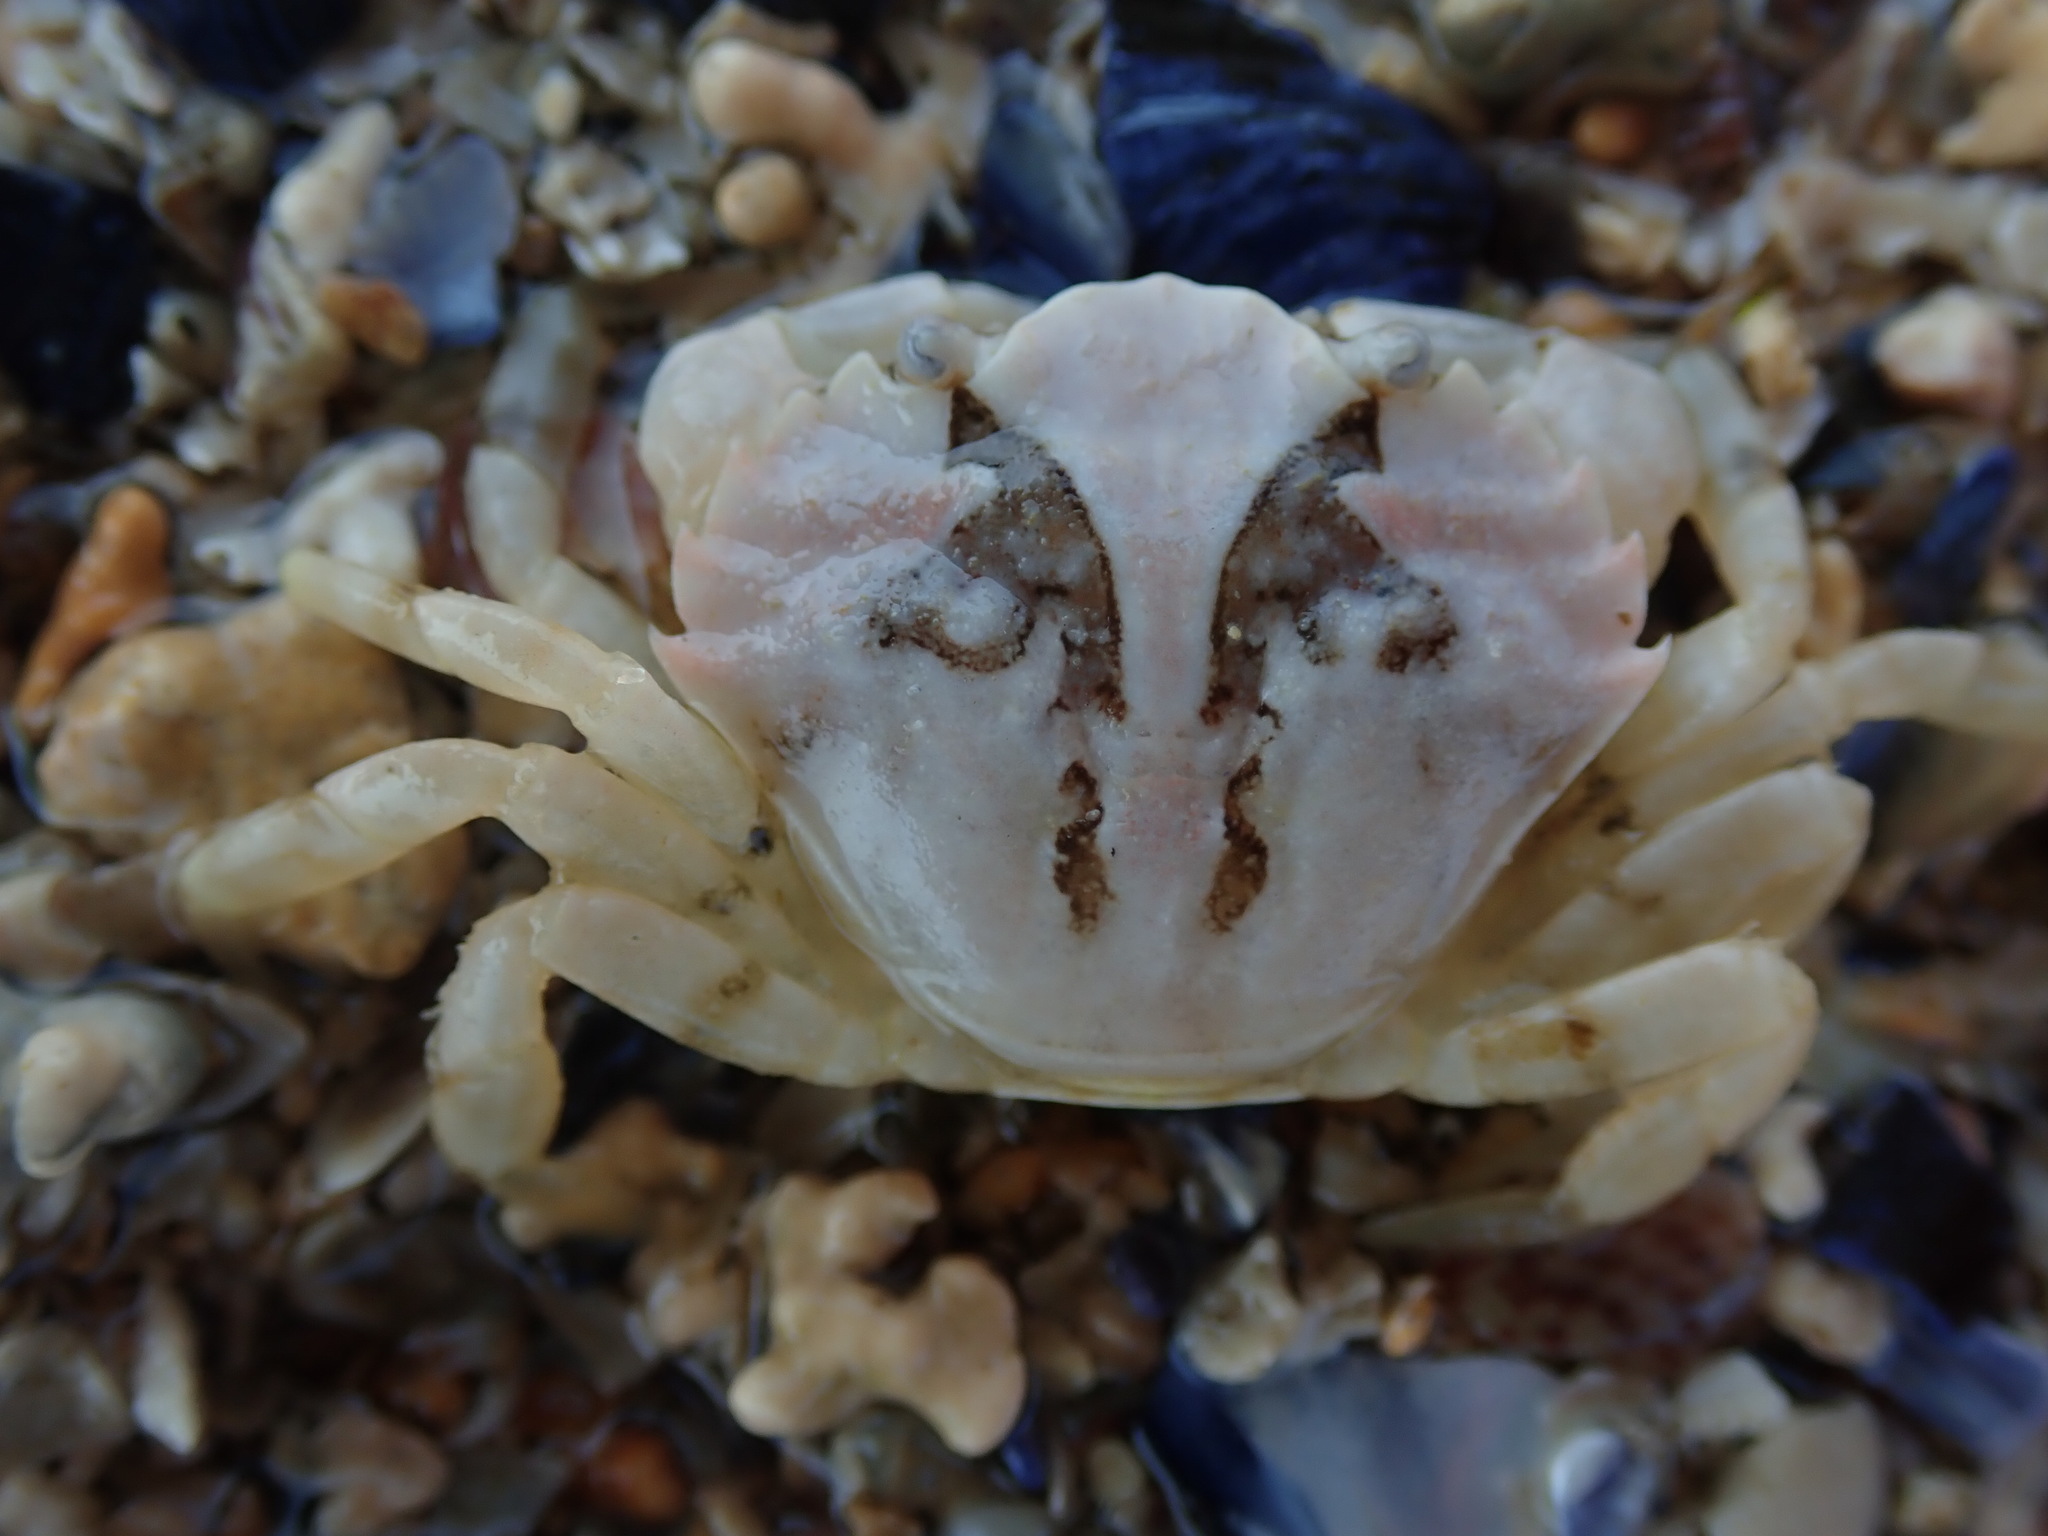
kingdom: Animalia
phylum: Arthropoda
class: Malacostraca
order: Decapoda
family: Carcinidae
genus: Carcinus
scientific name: Carcinus maenas
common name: European green crab
